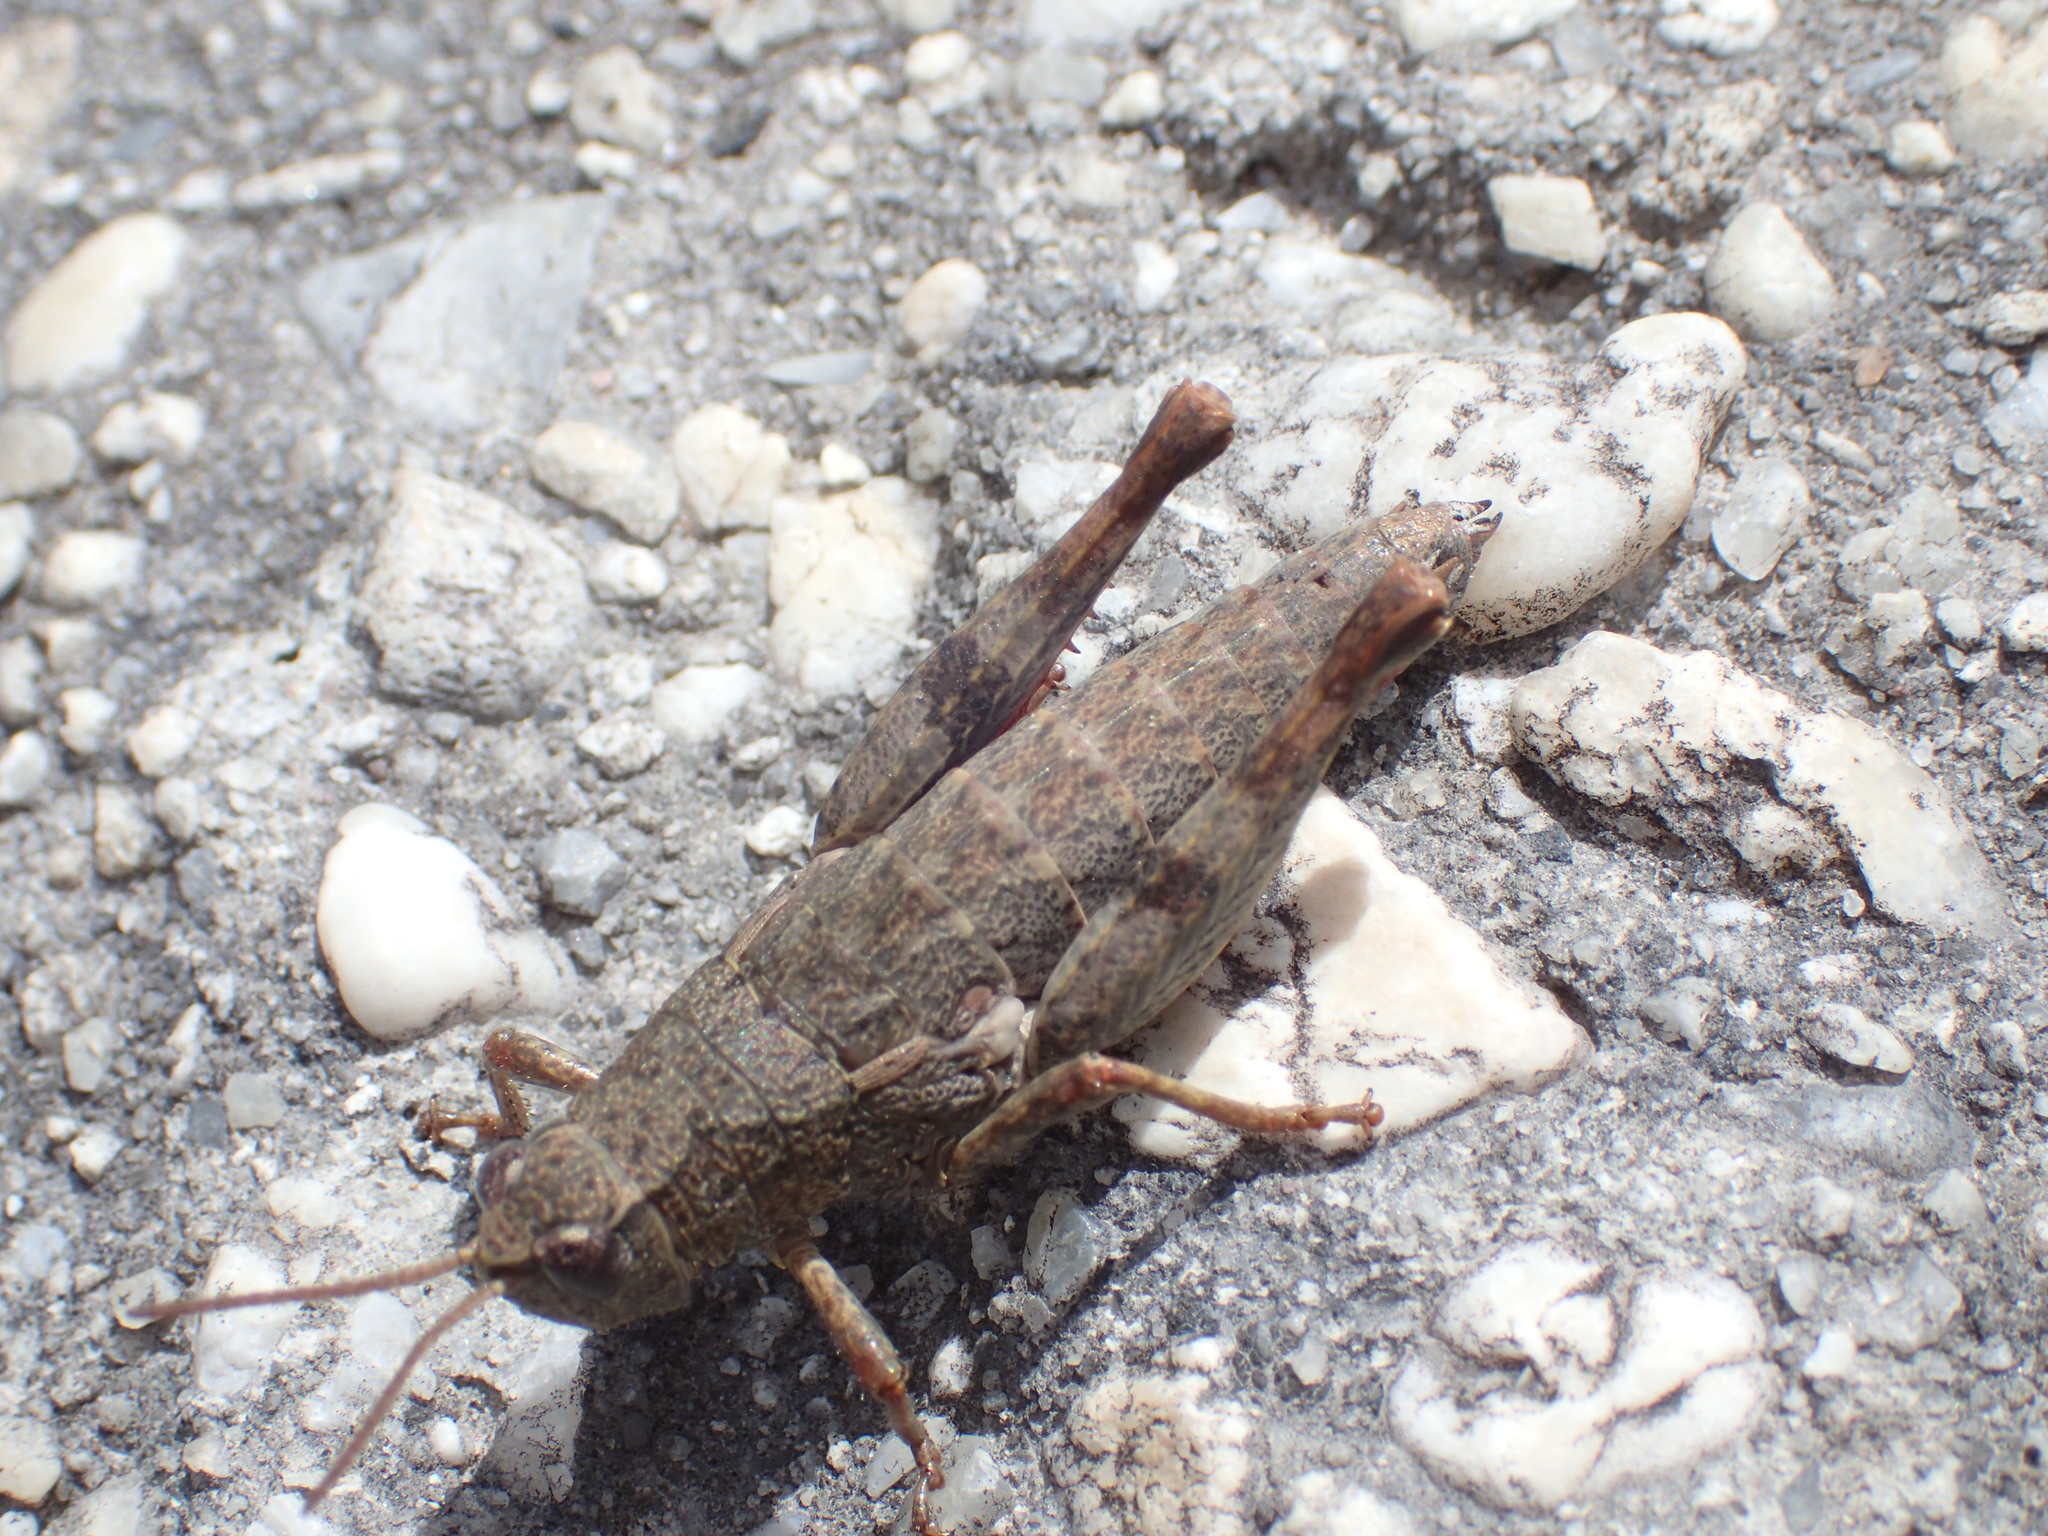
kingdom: Animalia
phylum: Arthropoda
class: Insecta
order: Orthoptera
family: Acrididae
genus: Tasmaniacris
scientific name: Tasmaniacris tasmaniensis
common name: Tasmanian grasshopper
